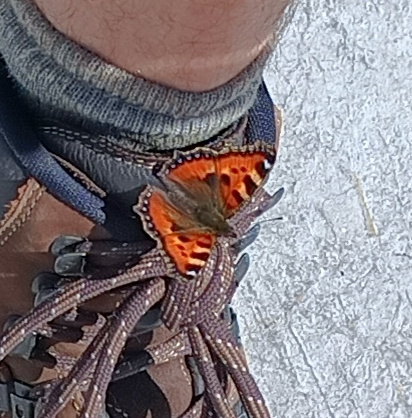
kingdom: Animalia
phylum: Arthropoda
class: Insecta
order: Lepidoptera
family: Nymphalidae
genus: Aglais
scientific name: Aglais urticae
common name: Small tortoiseshell
